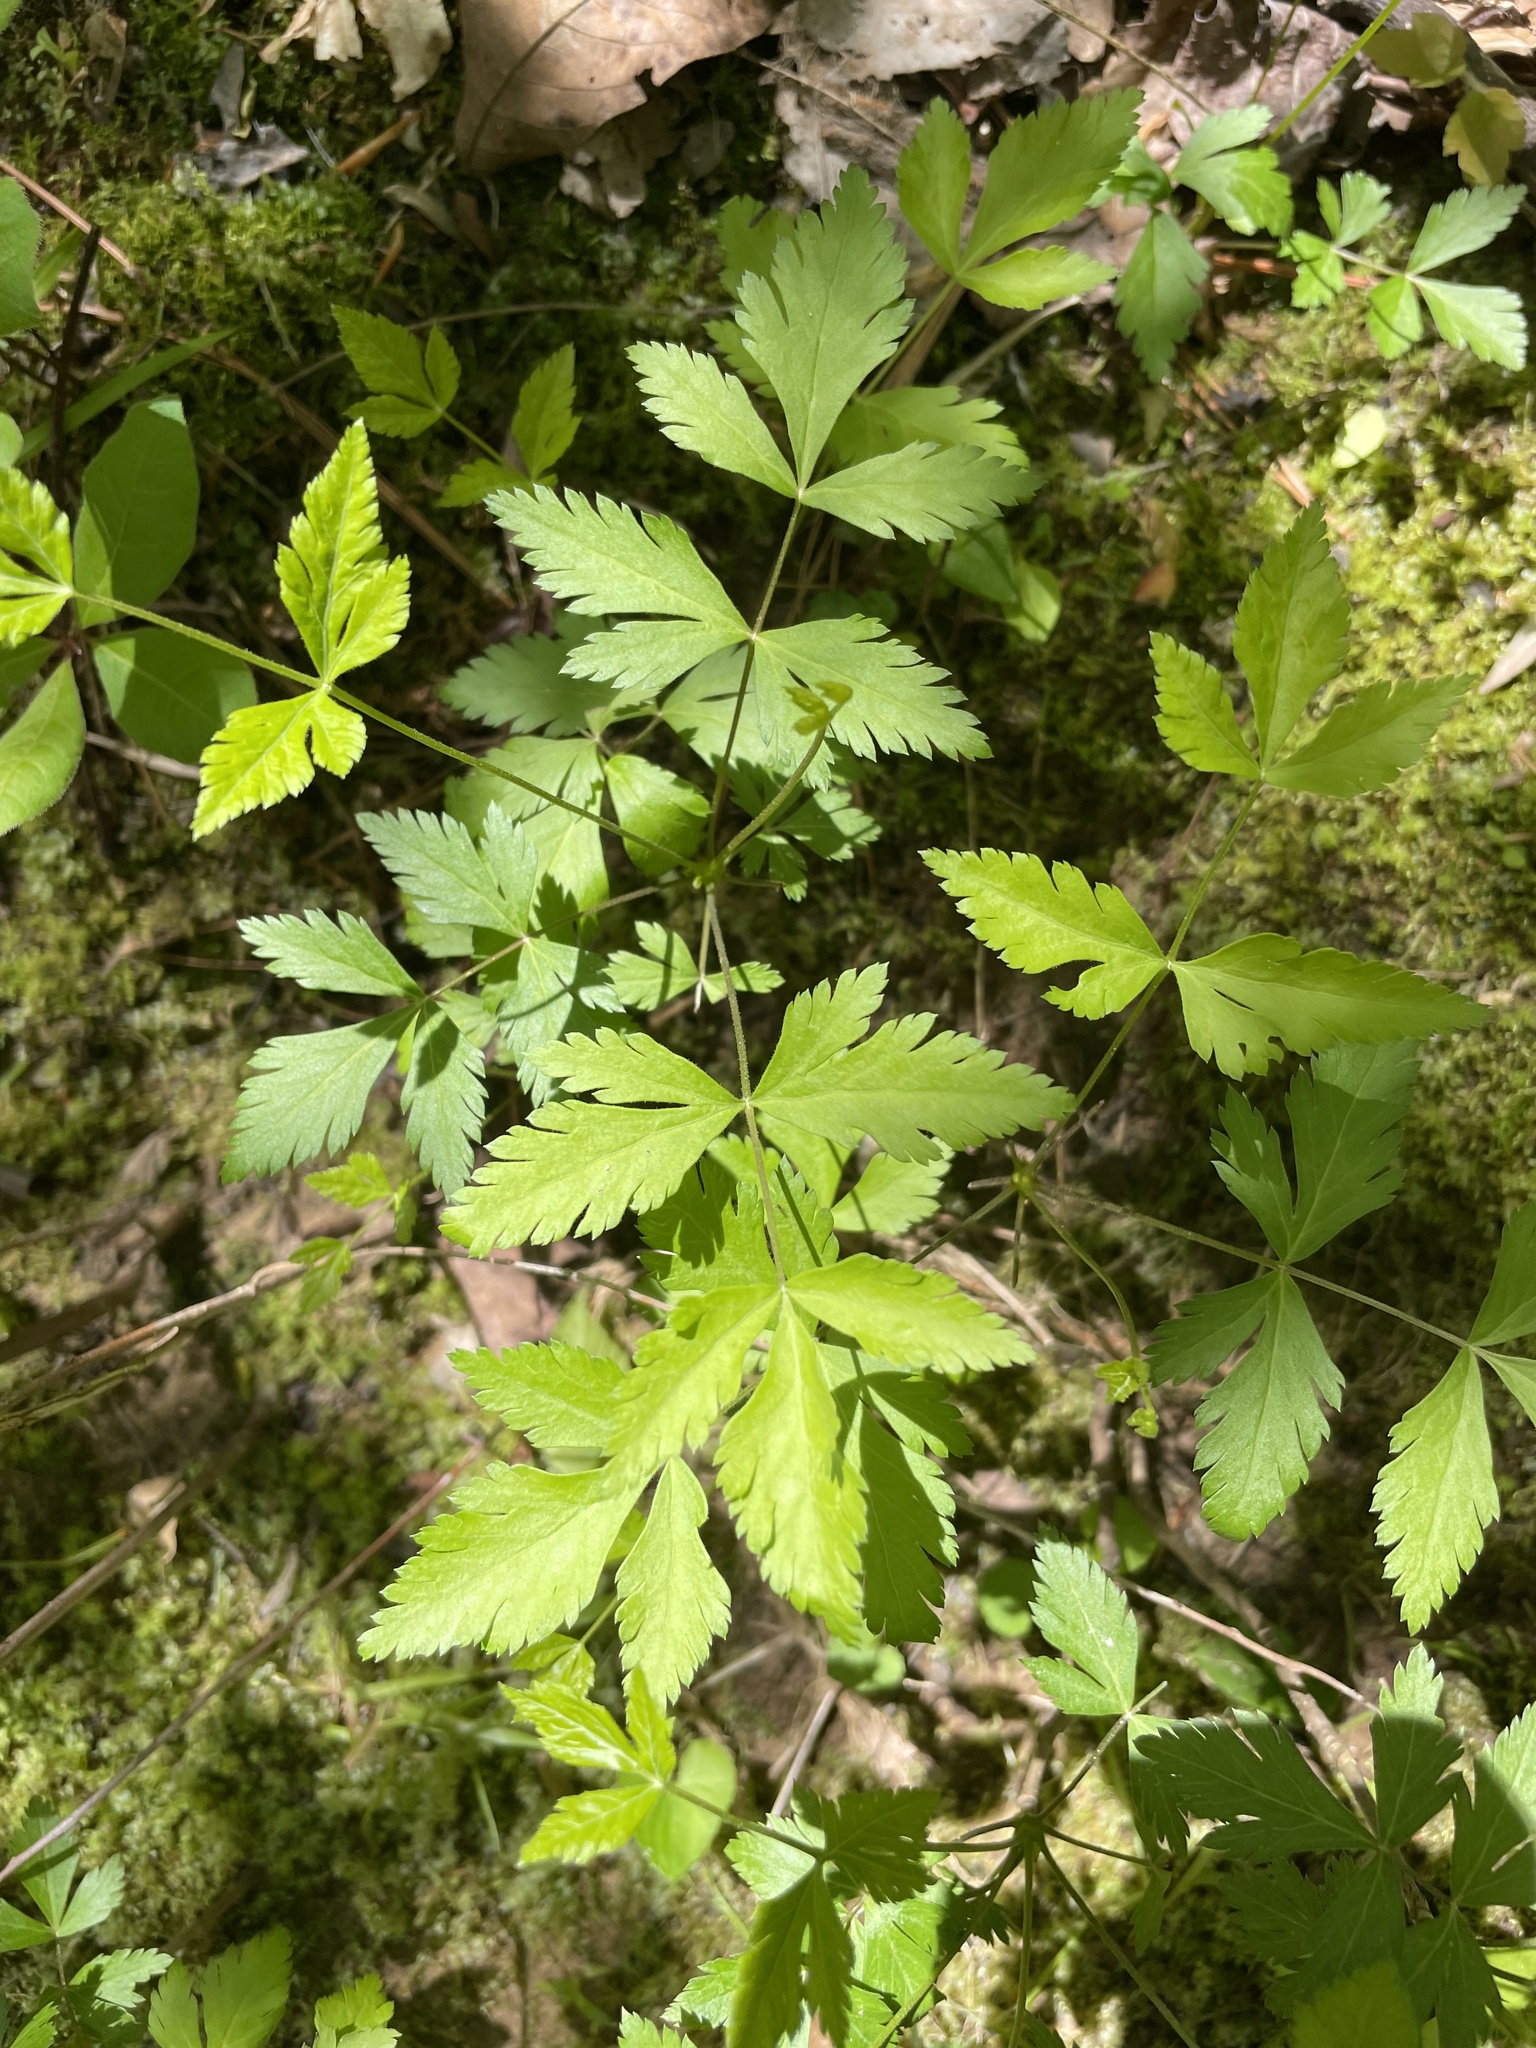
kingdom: Plantae
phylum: Tracheophyta
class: Magnoliopsida
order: Ranunculales
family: Ranunculaceae
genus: Xanthorhiza
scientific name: Xanthorhiza simplicissima
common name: Yellowroot
